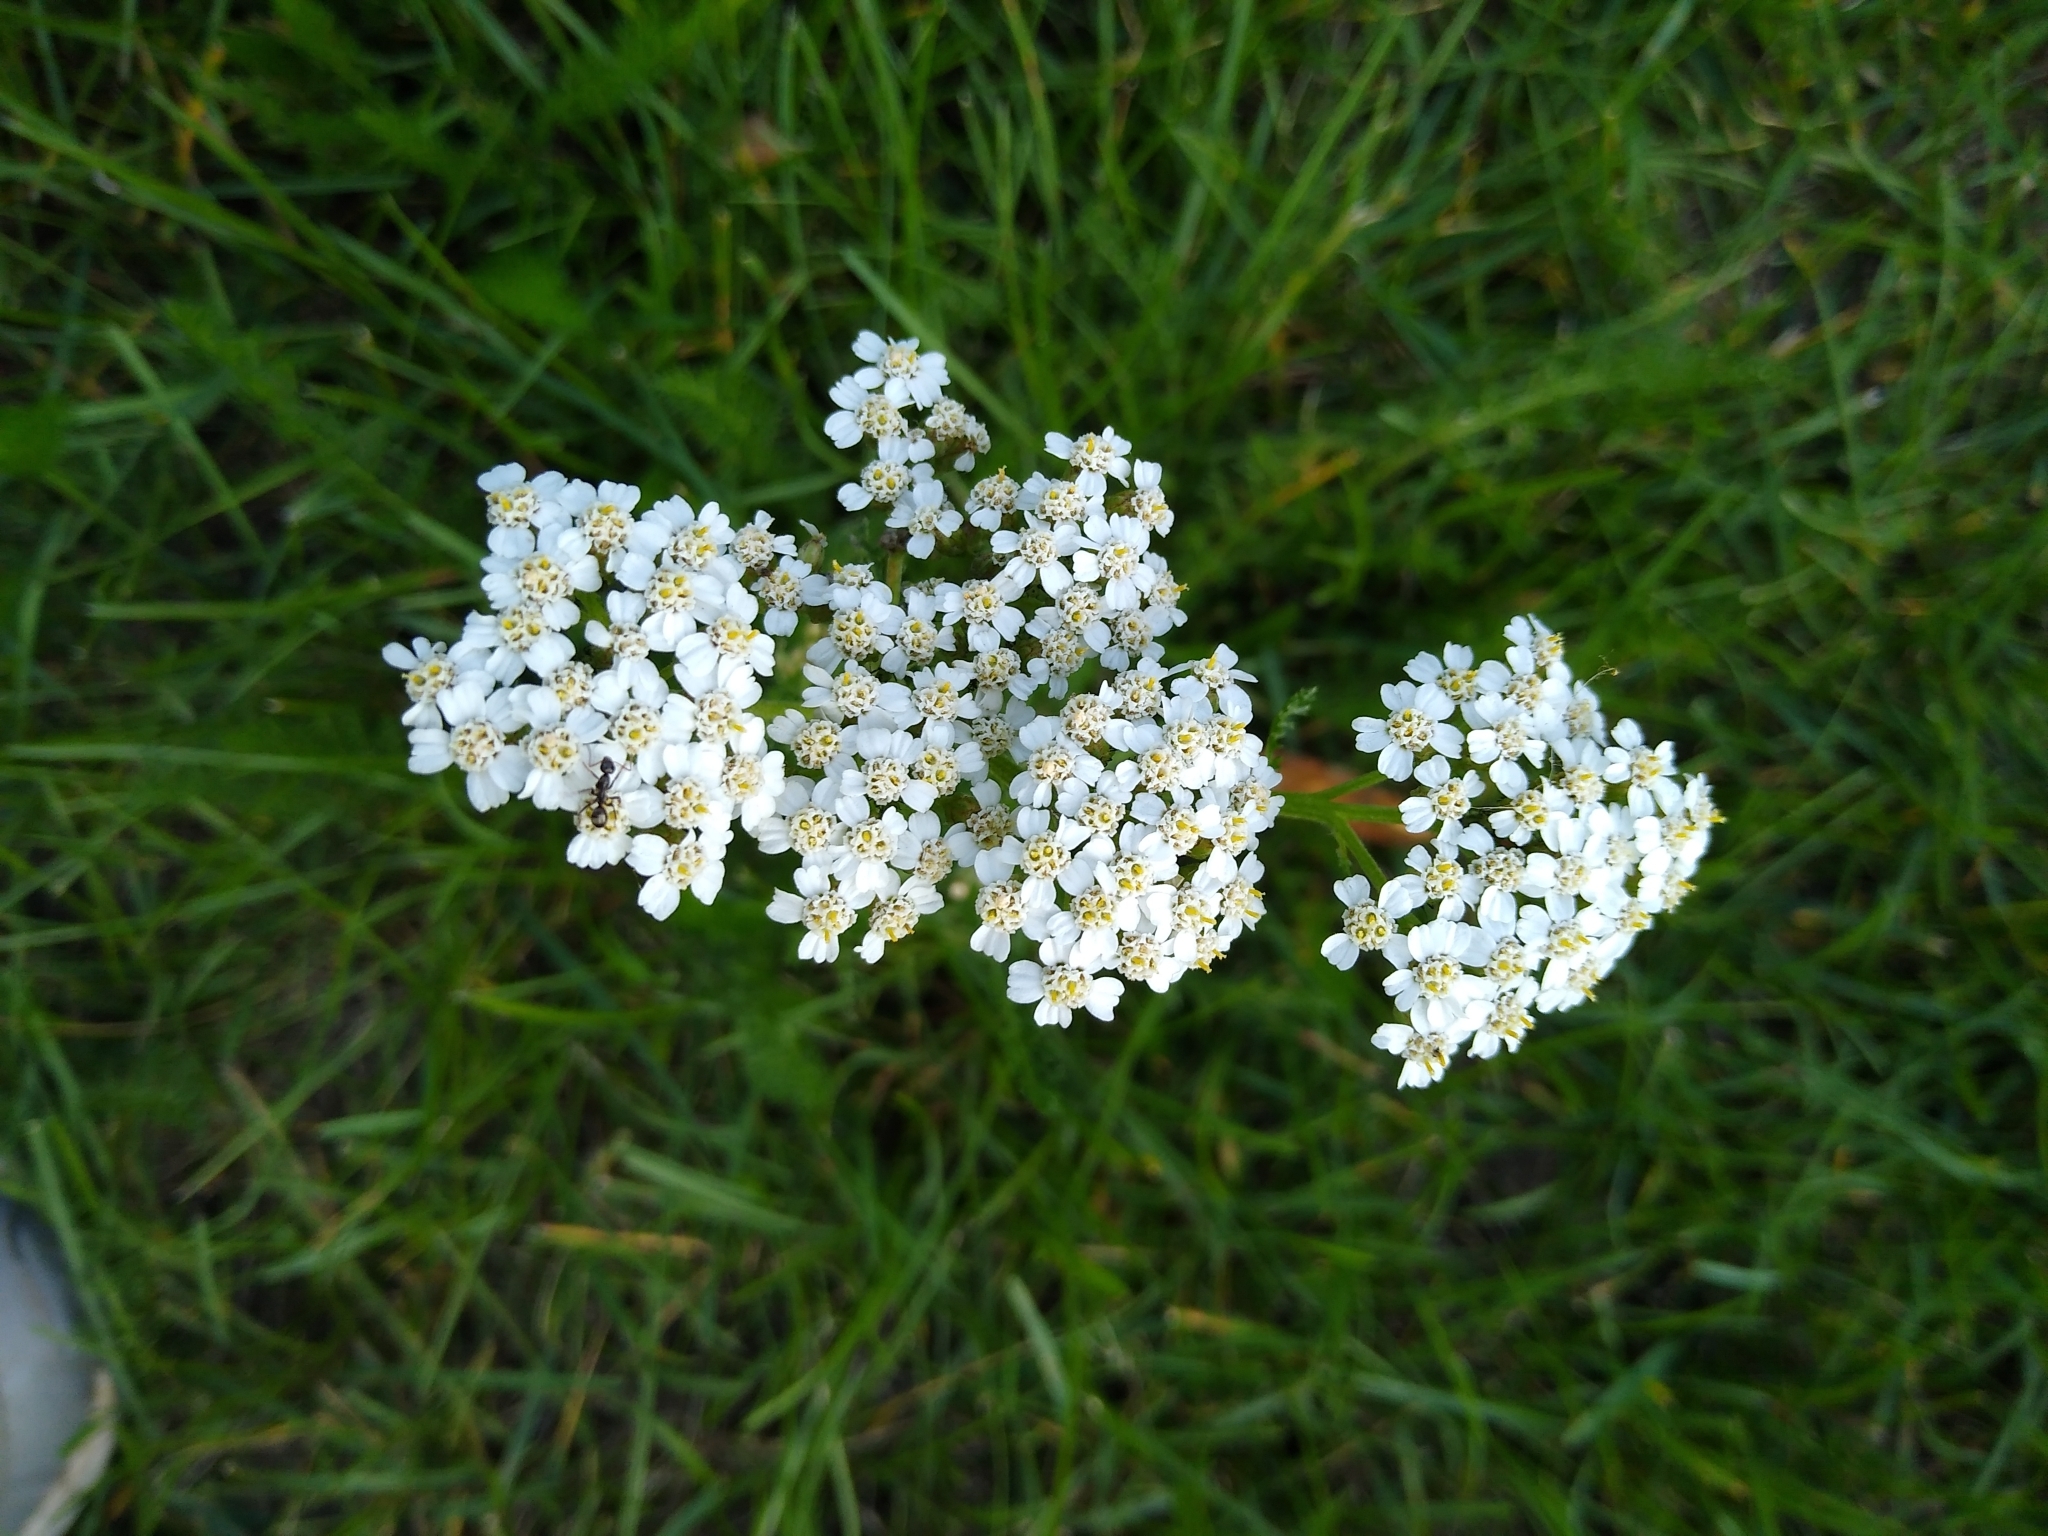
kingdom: Plantae
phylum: Tracheophyta
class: Magnoliopsida
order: Asterales
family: Asteraceae
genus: Achillea
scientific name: Achillea millefolium
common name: Yarrow
